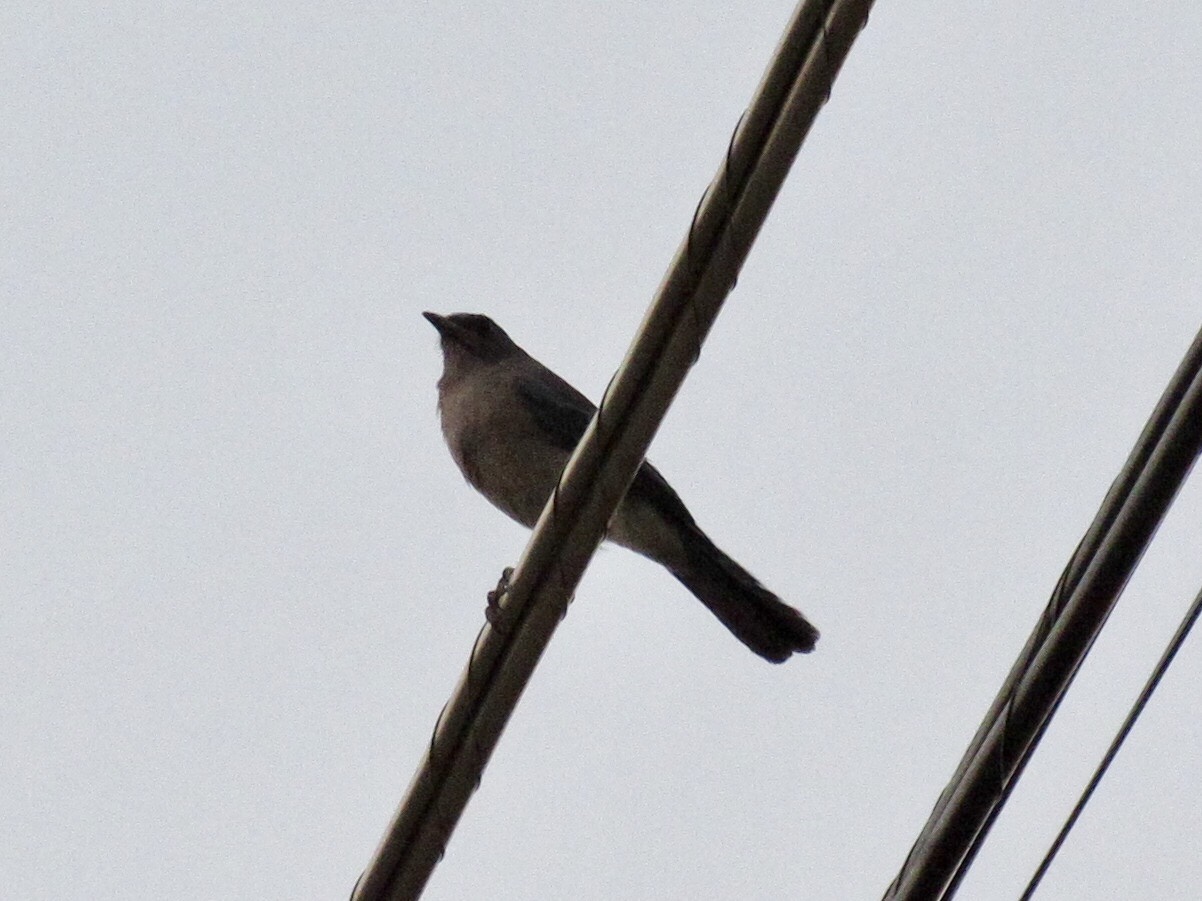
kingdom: Animalia
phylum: Chordata
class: Aves
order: Passeriformes
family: Corvidae
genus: Aphelocoma
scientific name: Aphelocoma wollweberi
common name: Mexican jay
